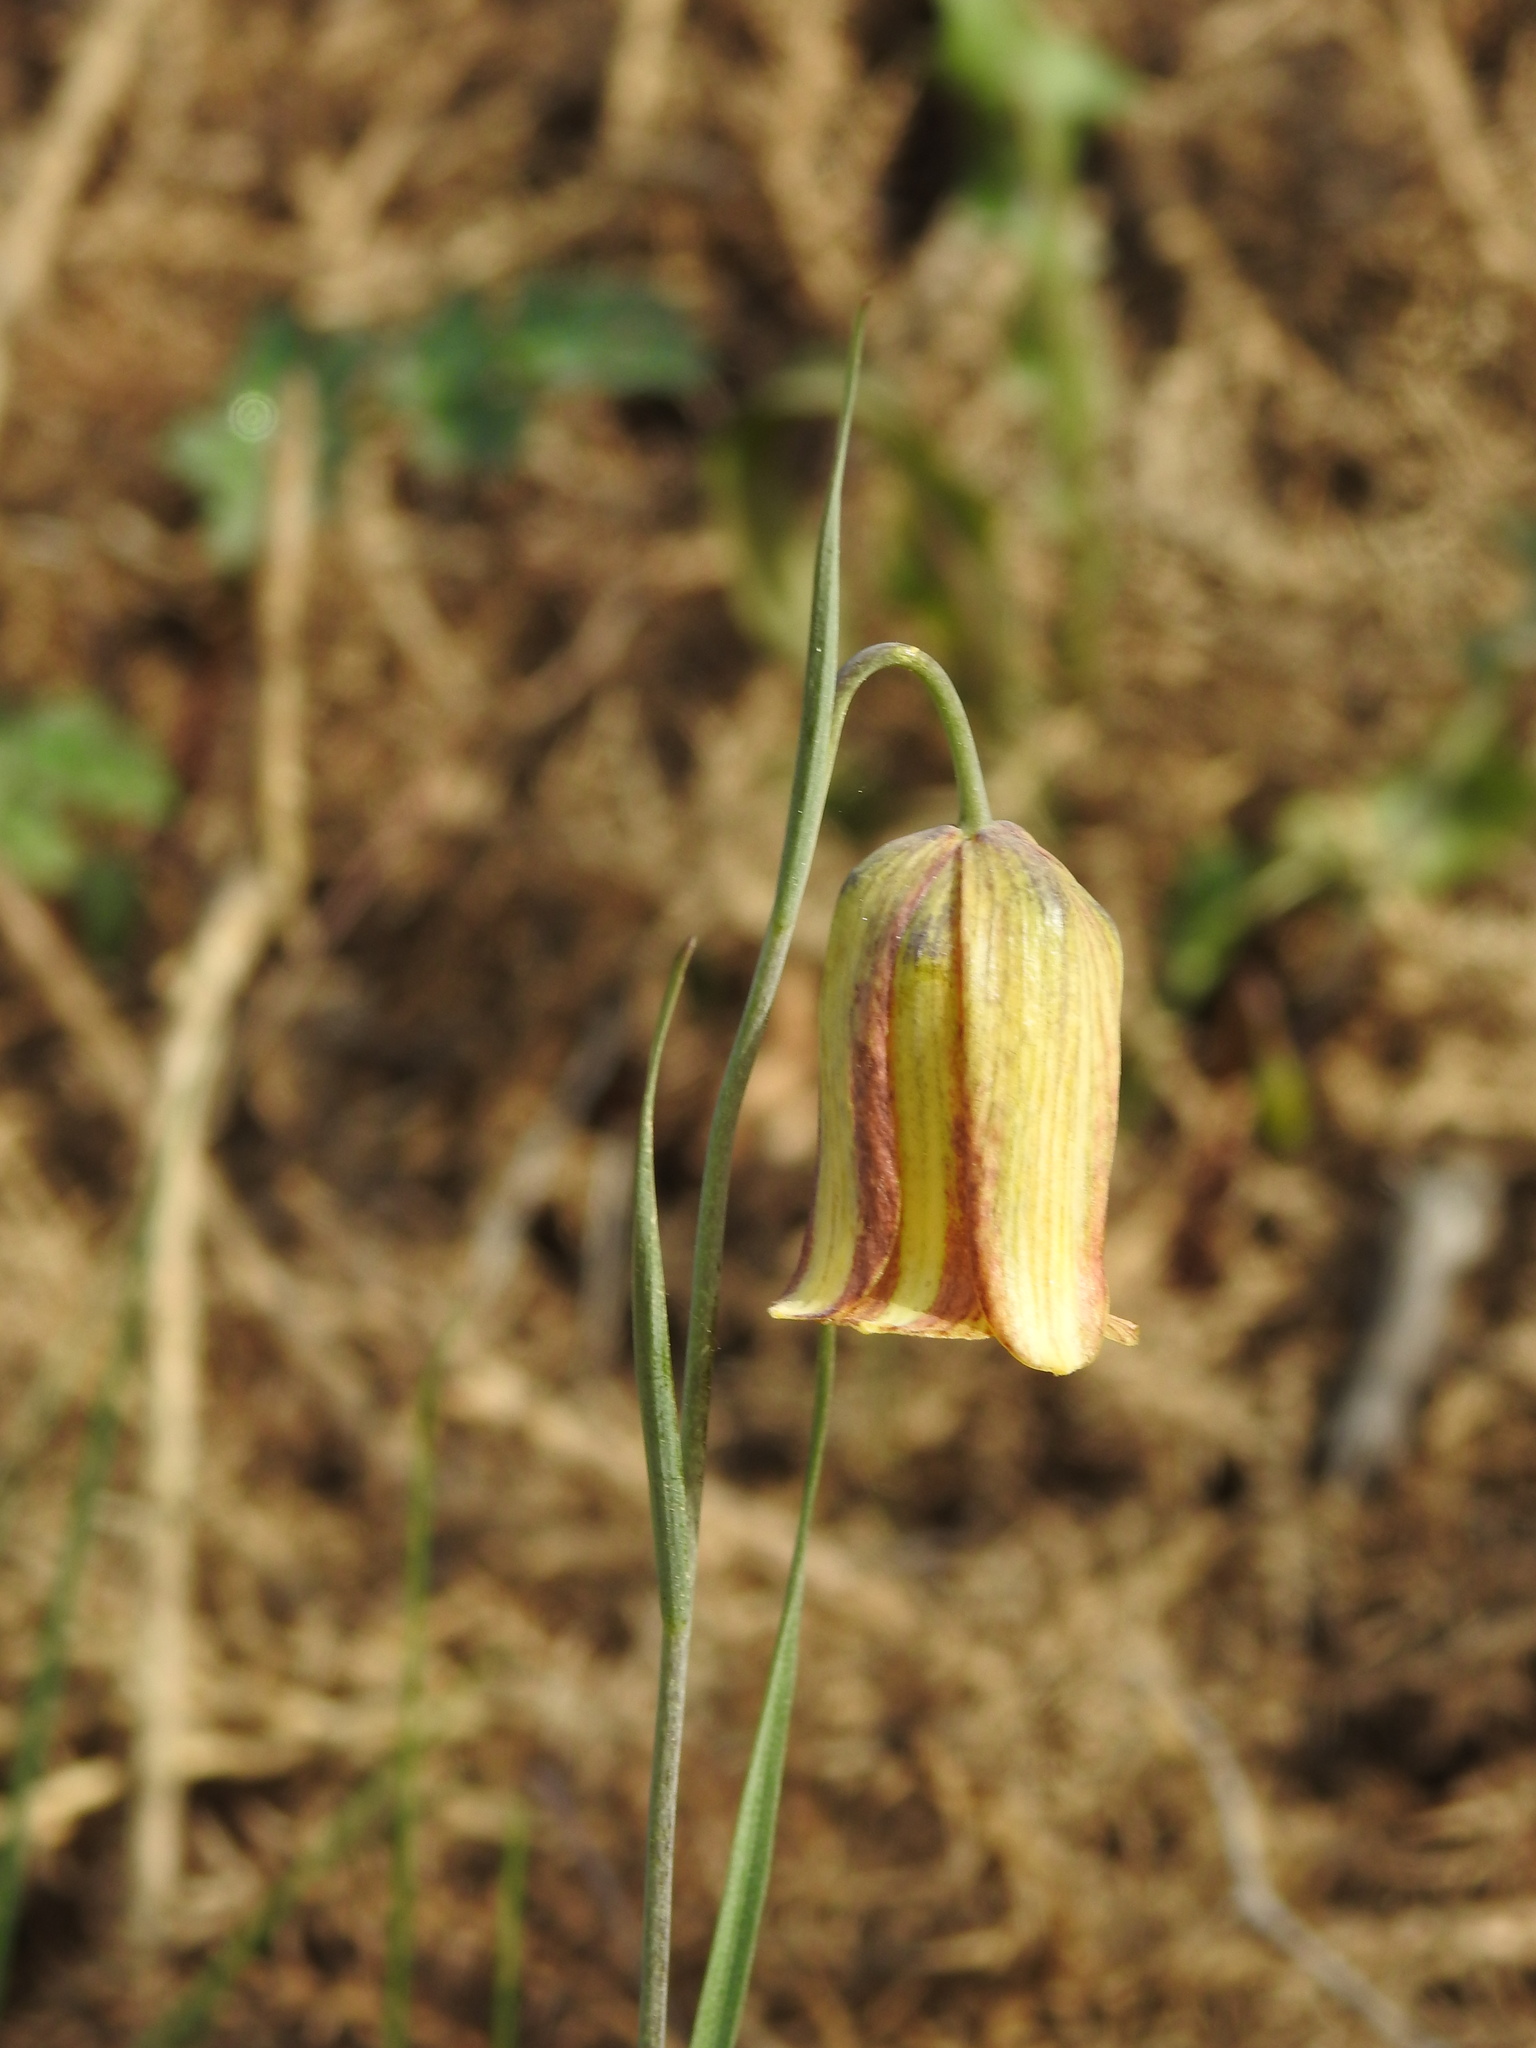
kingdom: Plantae
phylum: Tracheophyta
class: Liliopsida
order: Liliales
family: Liliaceae
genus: Fritillaria
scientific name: Fritillaria lusitanica
